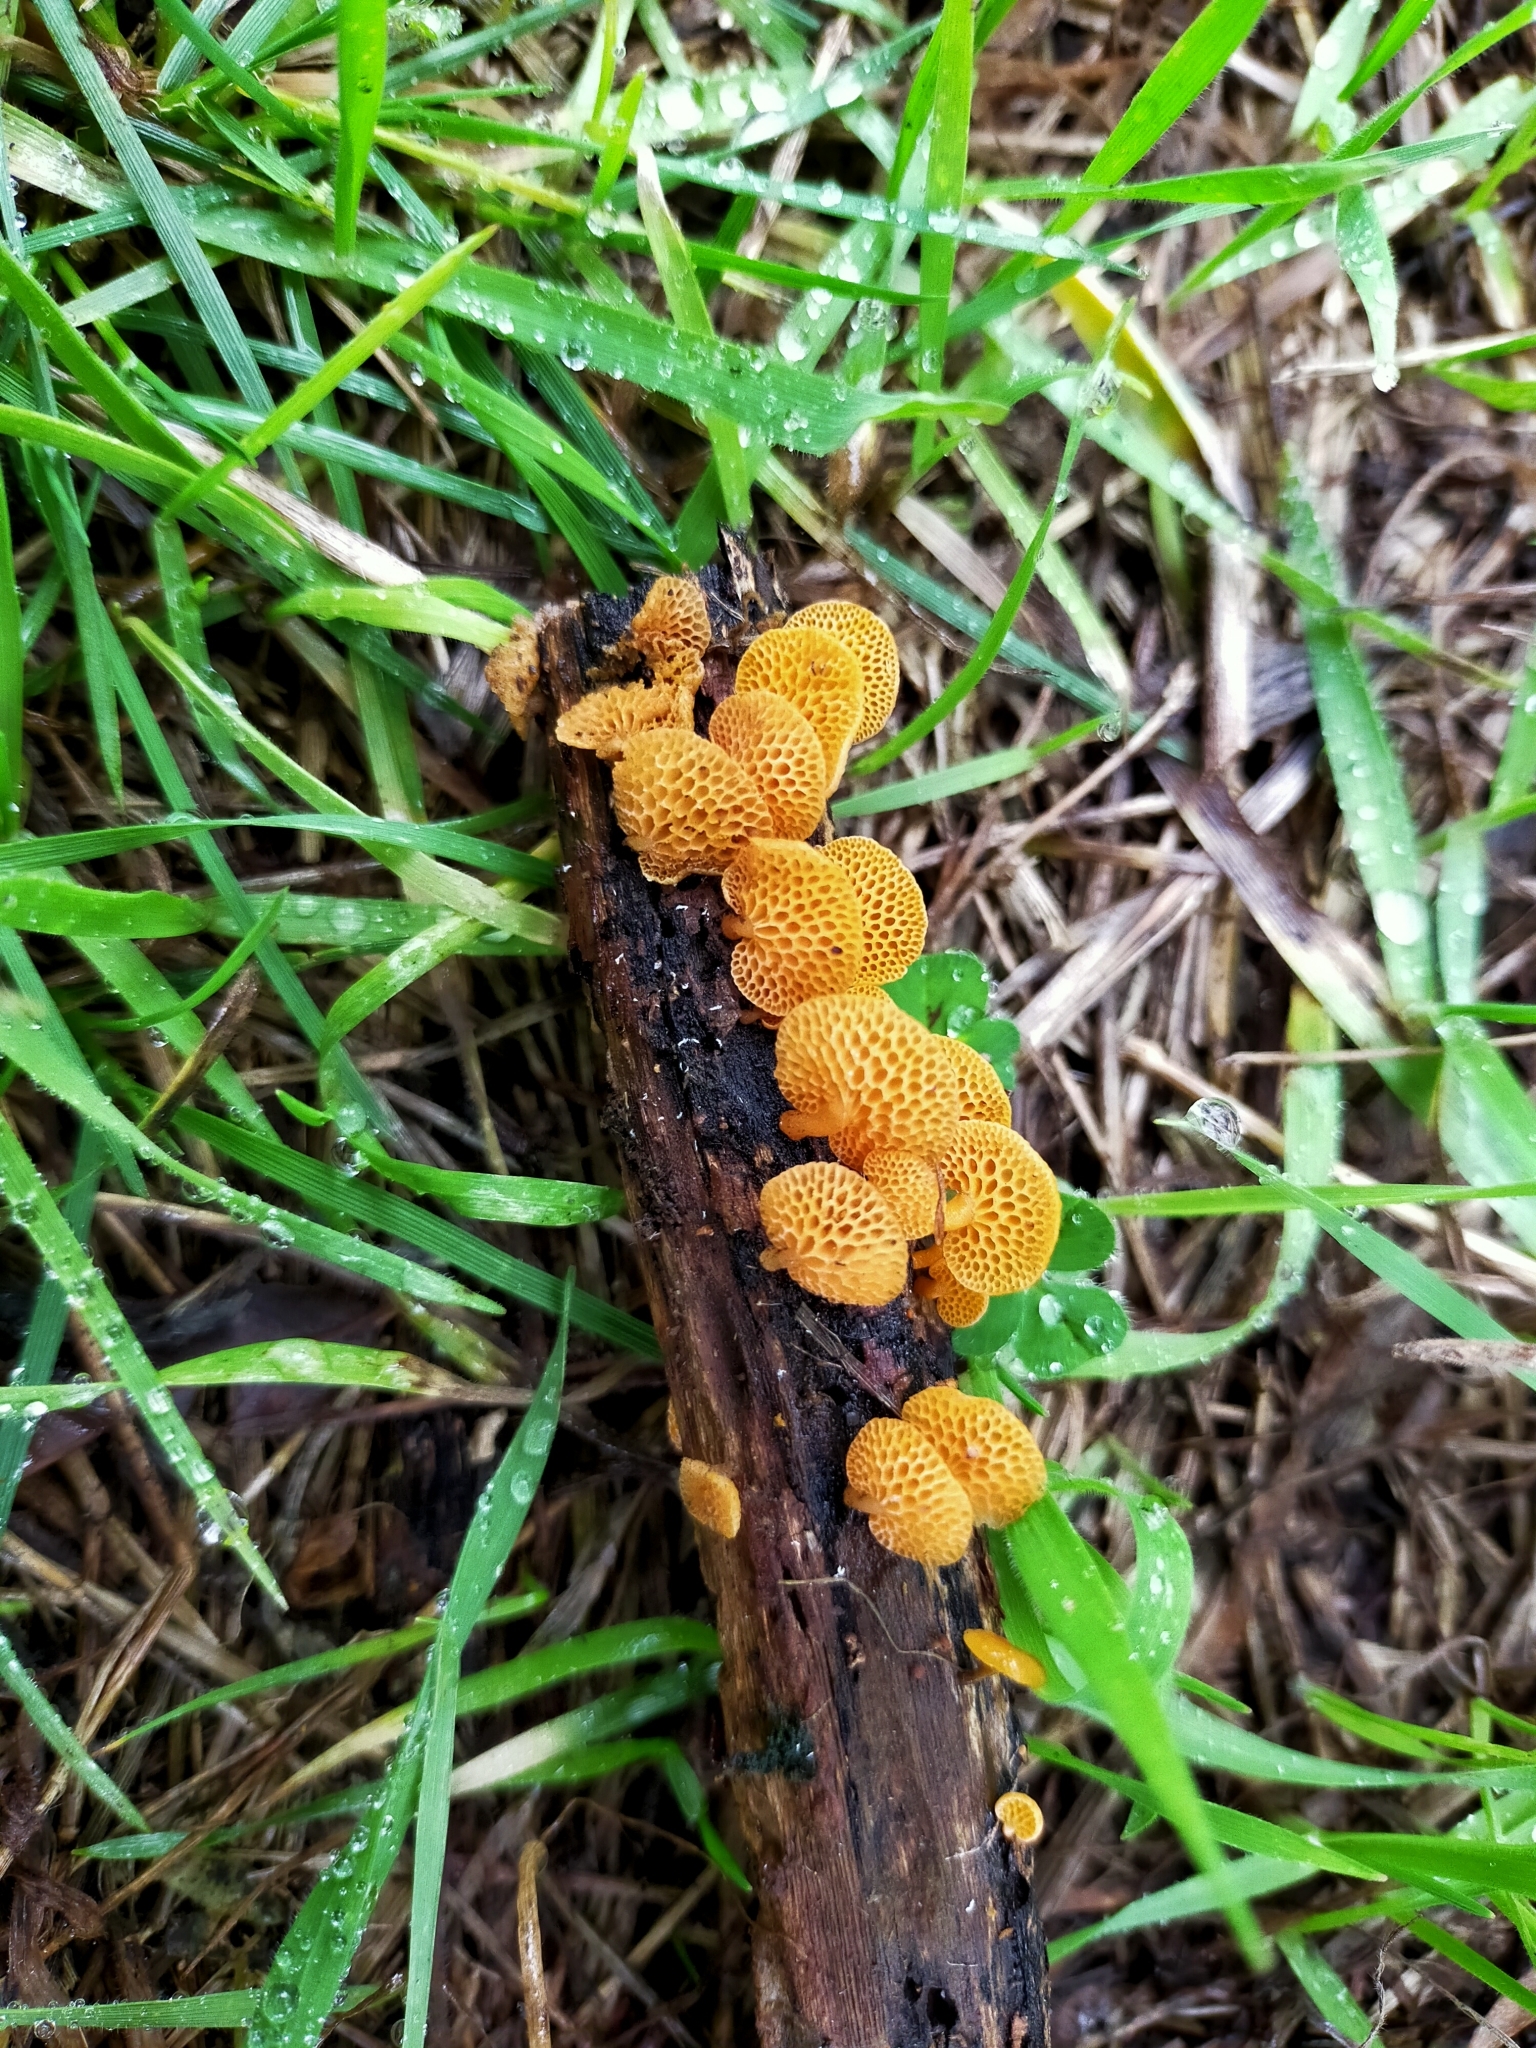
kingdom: Fungi
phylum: Basidiomycota
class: Agaricomycetes
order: Agaricales
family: Mycenaceae
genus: Favolaschia
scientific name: Favolaschia claudopus
